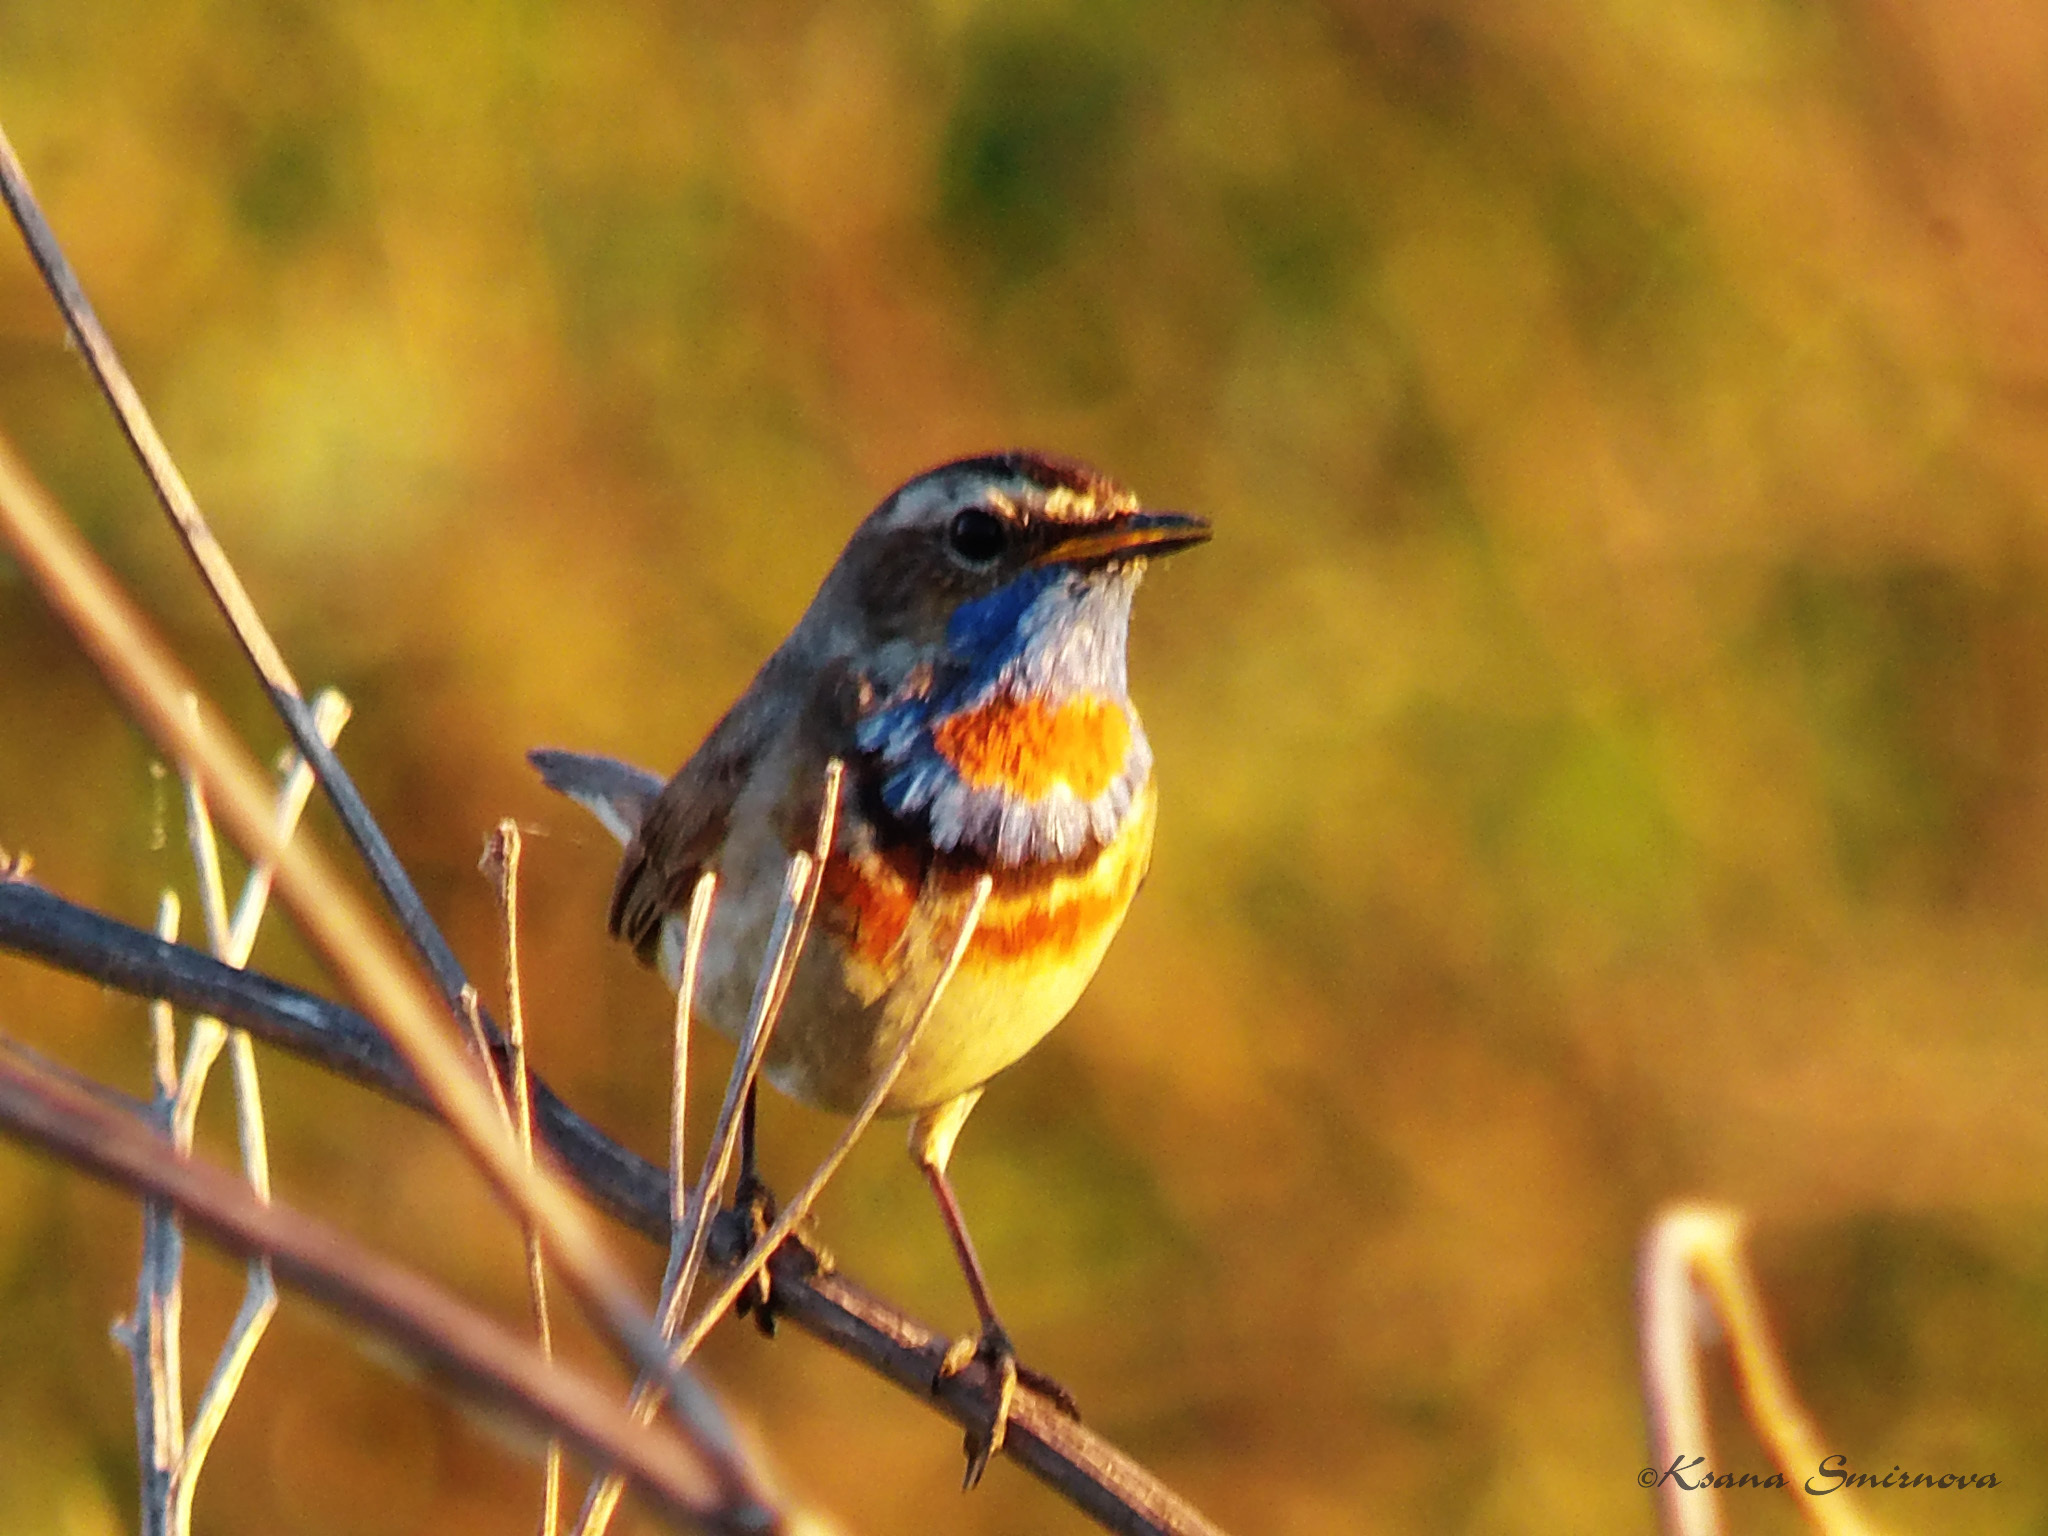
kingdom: Animalia
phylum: Chordata
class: Aves
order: Passeriformes
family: Muscicapidae
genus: Luscinia
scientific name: Luscinia svecica
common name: Bluethroat
